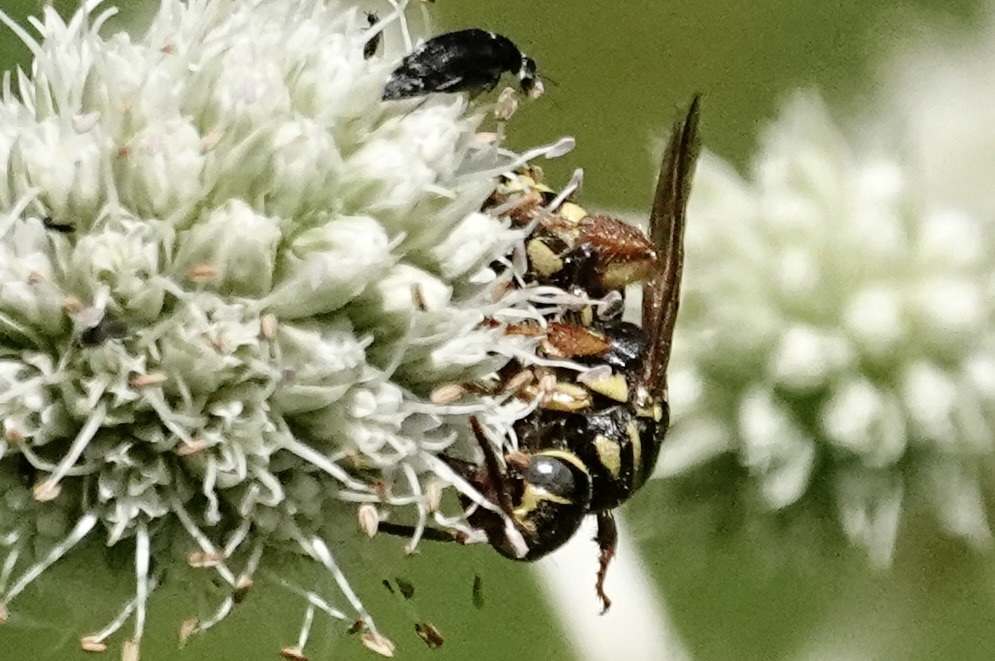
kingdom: Animalia
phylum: Arthropoda
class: Insecta
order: Hymenoptera
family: Tiphiidae
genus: Myzinum
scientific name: Myzinum quinquecinctum
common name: Five-banded thynnid wasp
